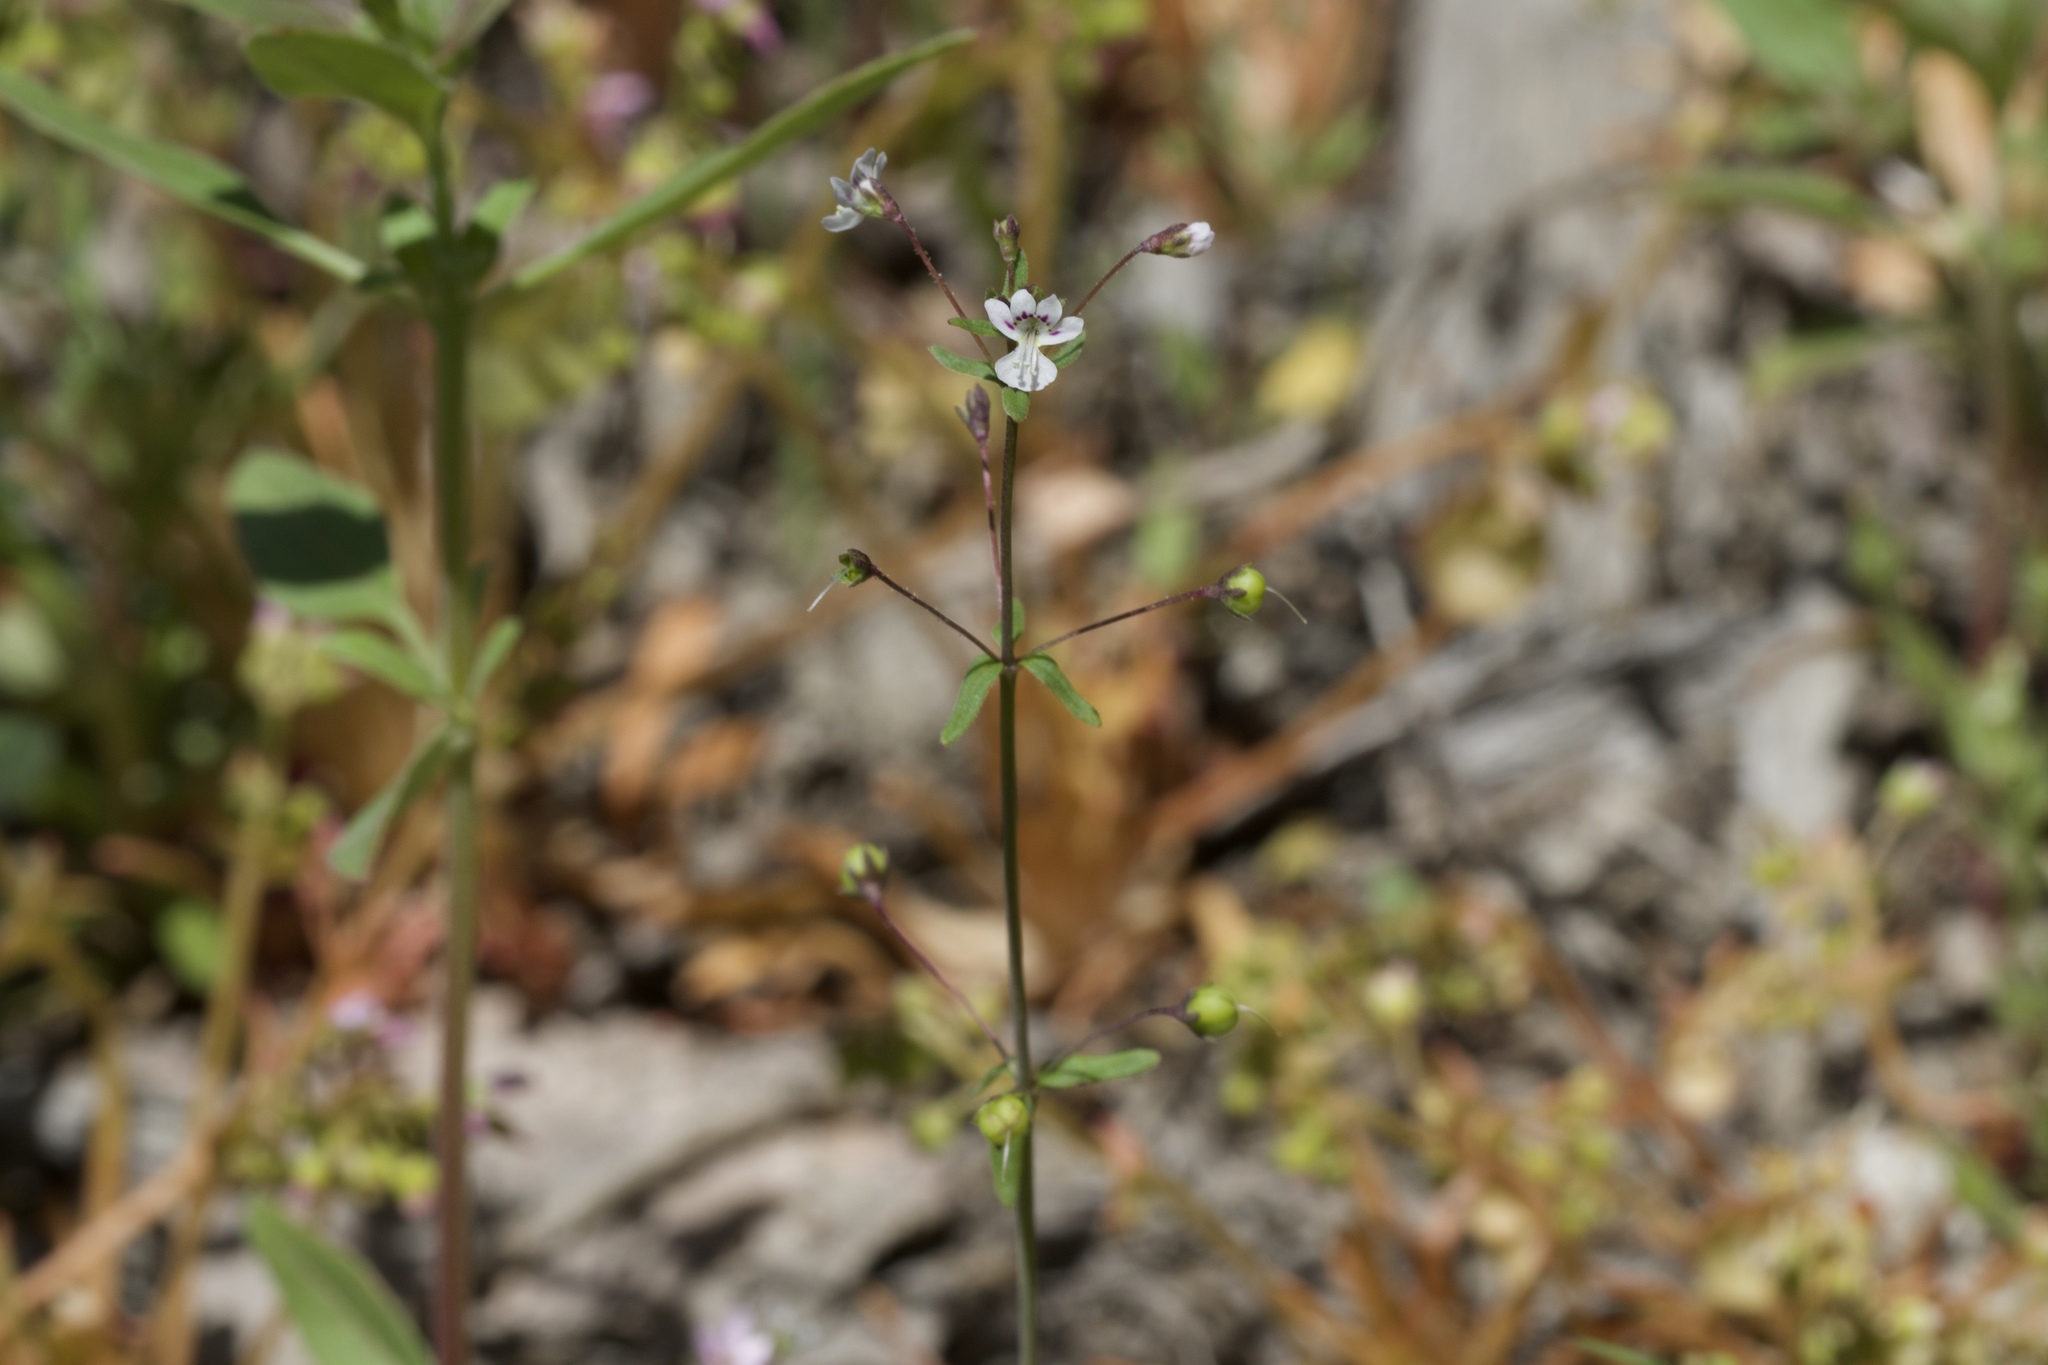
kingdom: Plantae
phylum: Tracheophyta
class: Magnoliopsida
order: Lamiales
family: Plantaginaceae
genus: Tonella
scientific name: Tonella tenella
